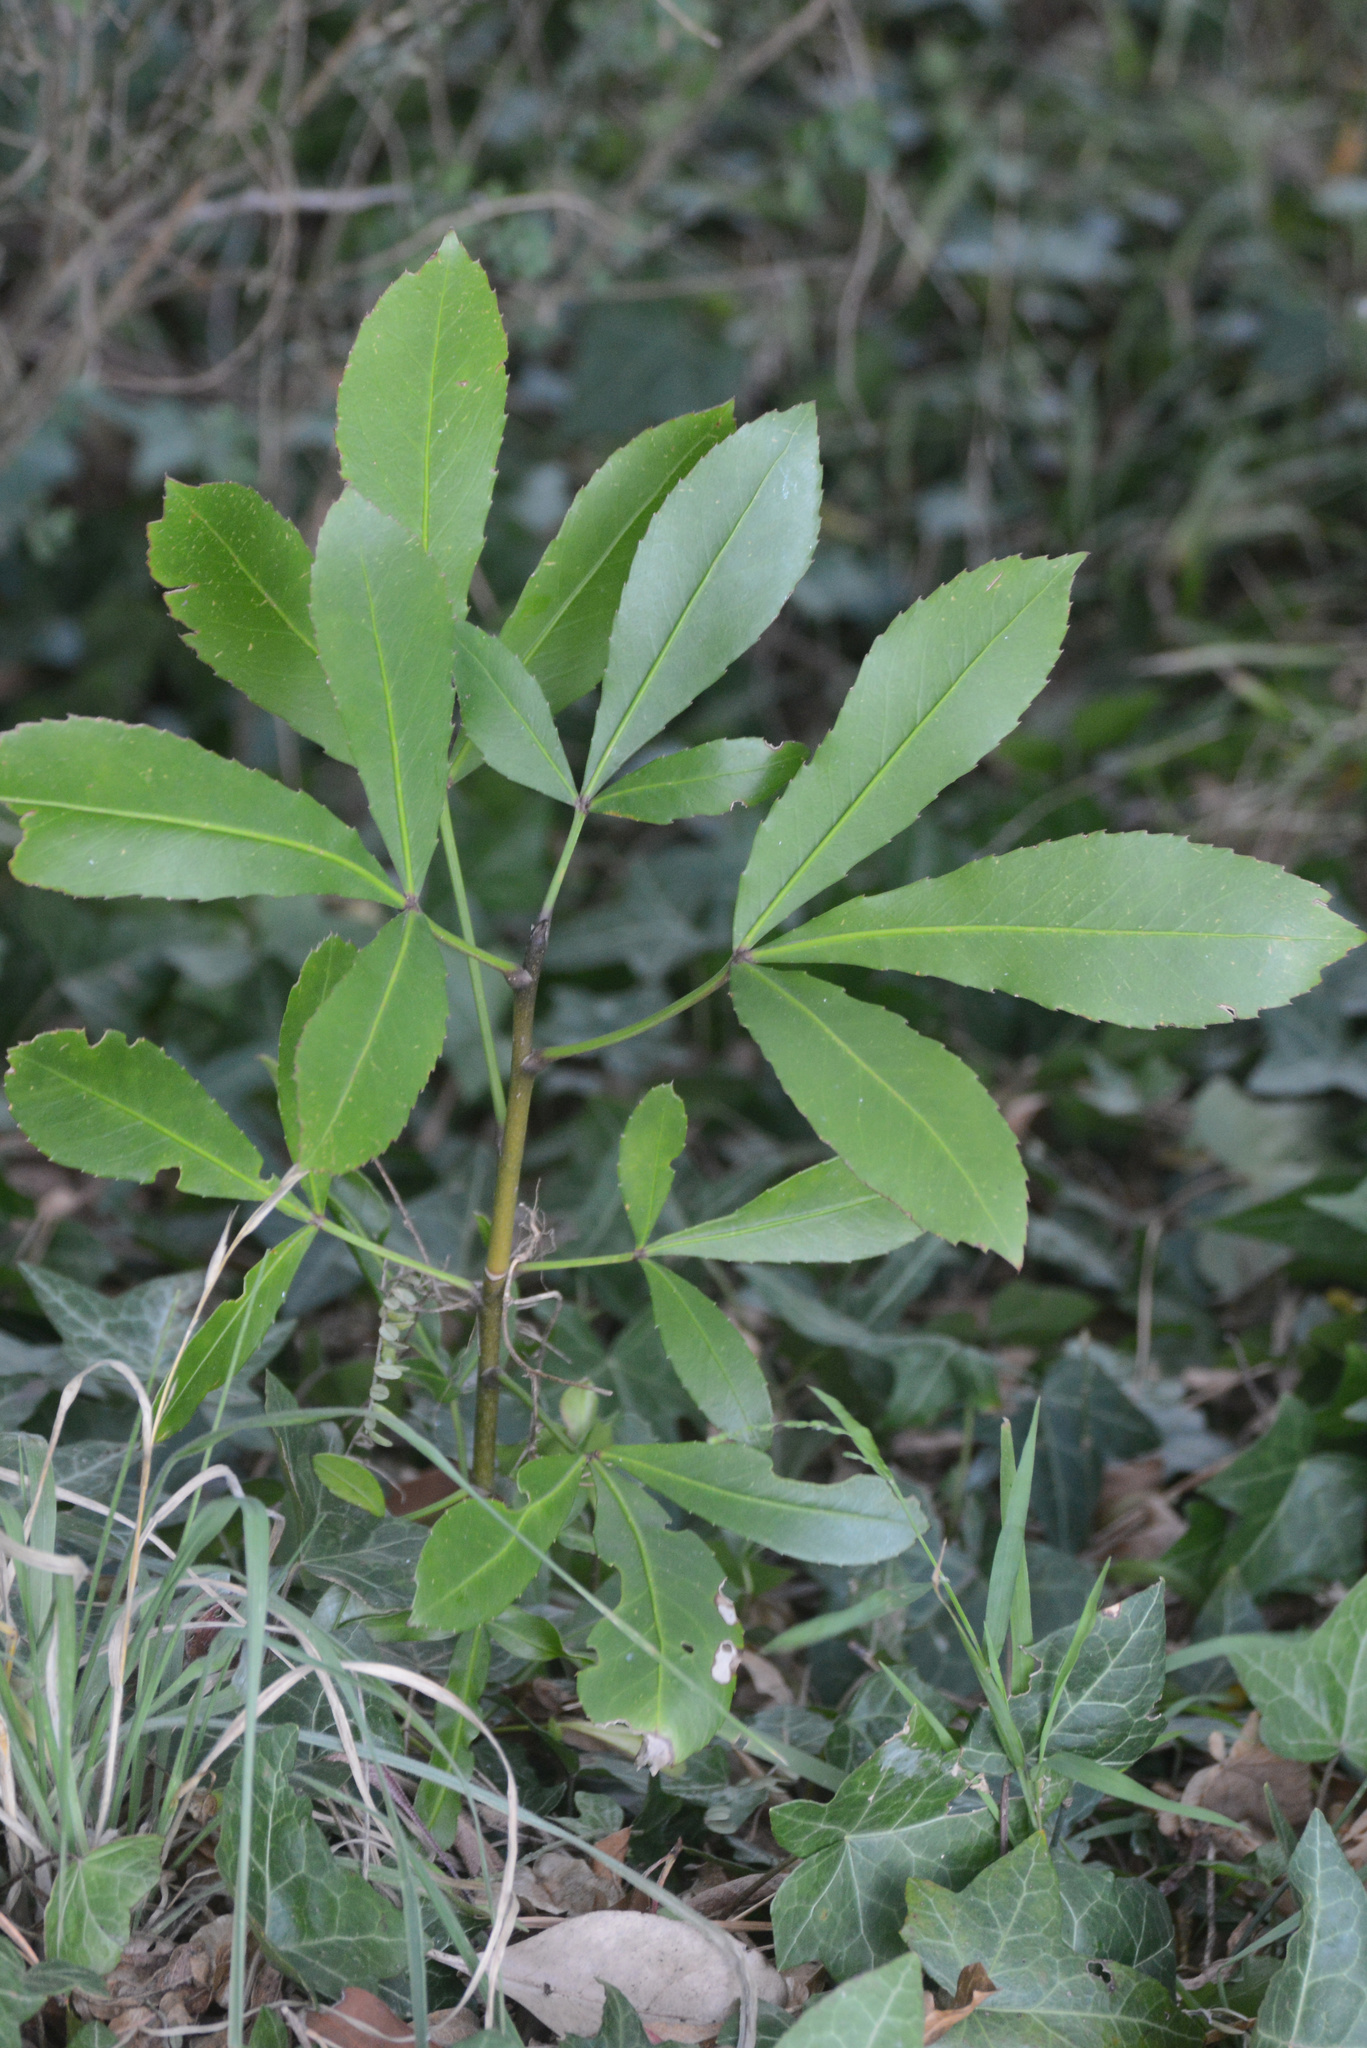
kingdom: Plantae
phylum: Tracheophyta
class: Magnoliopsida
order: Apiales
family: Araliaceae
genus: Neopanax
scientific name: Neopanax colensoi
